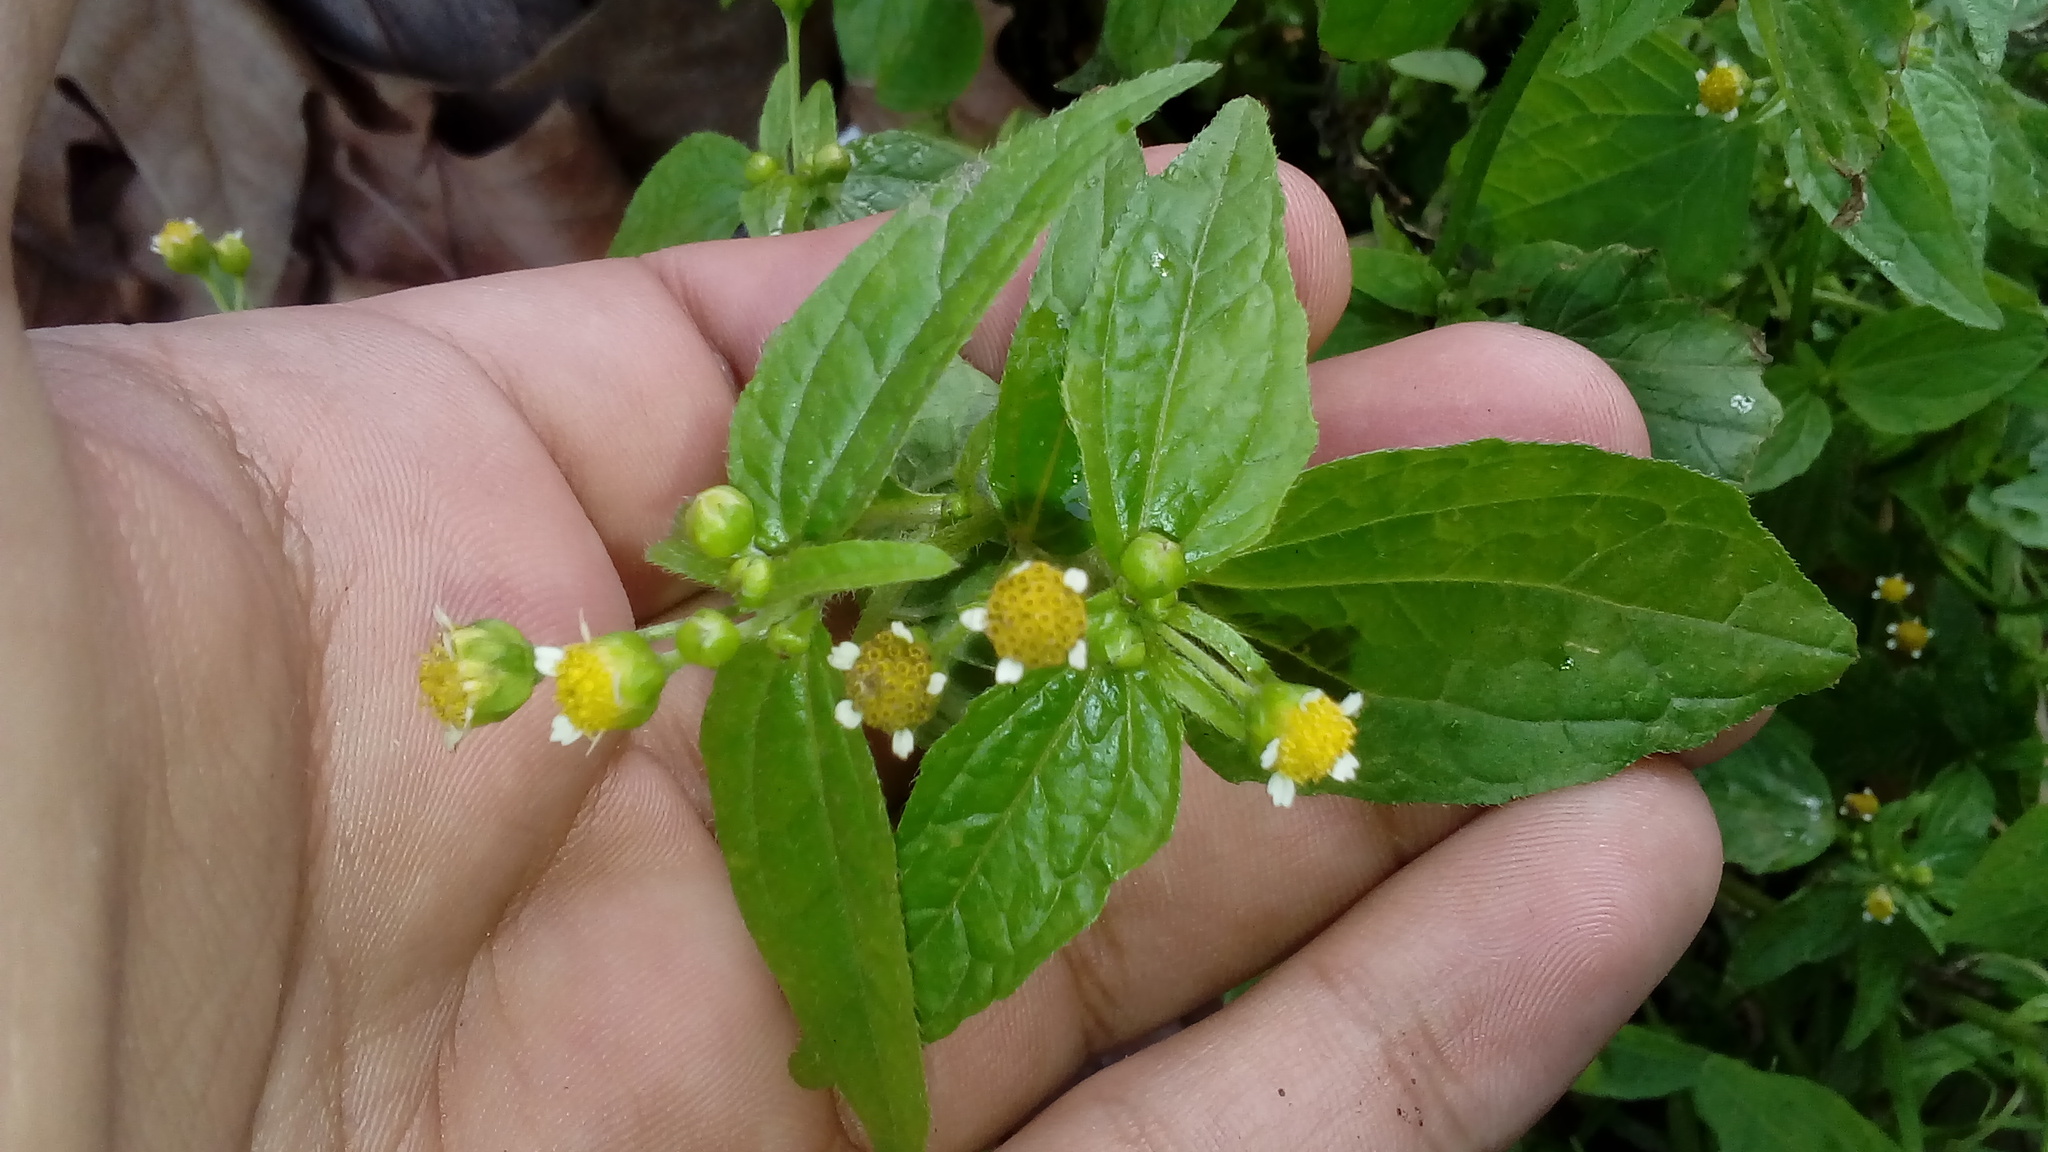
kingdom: Plantae
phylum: Tracheophyta
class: Magnoliopsida
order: Asterales
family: Asteraceae
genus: Galinsoga
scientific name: Galinsoga parviflora
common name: Gallant soldier
